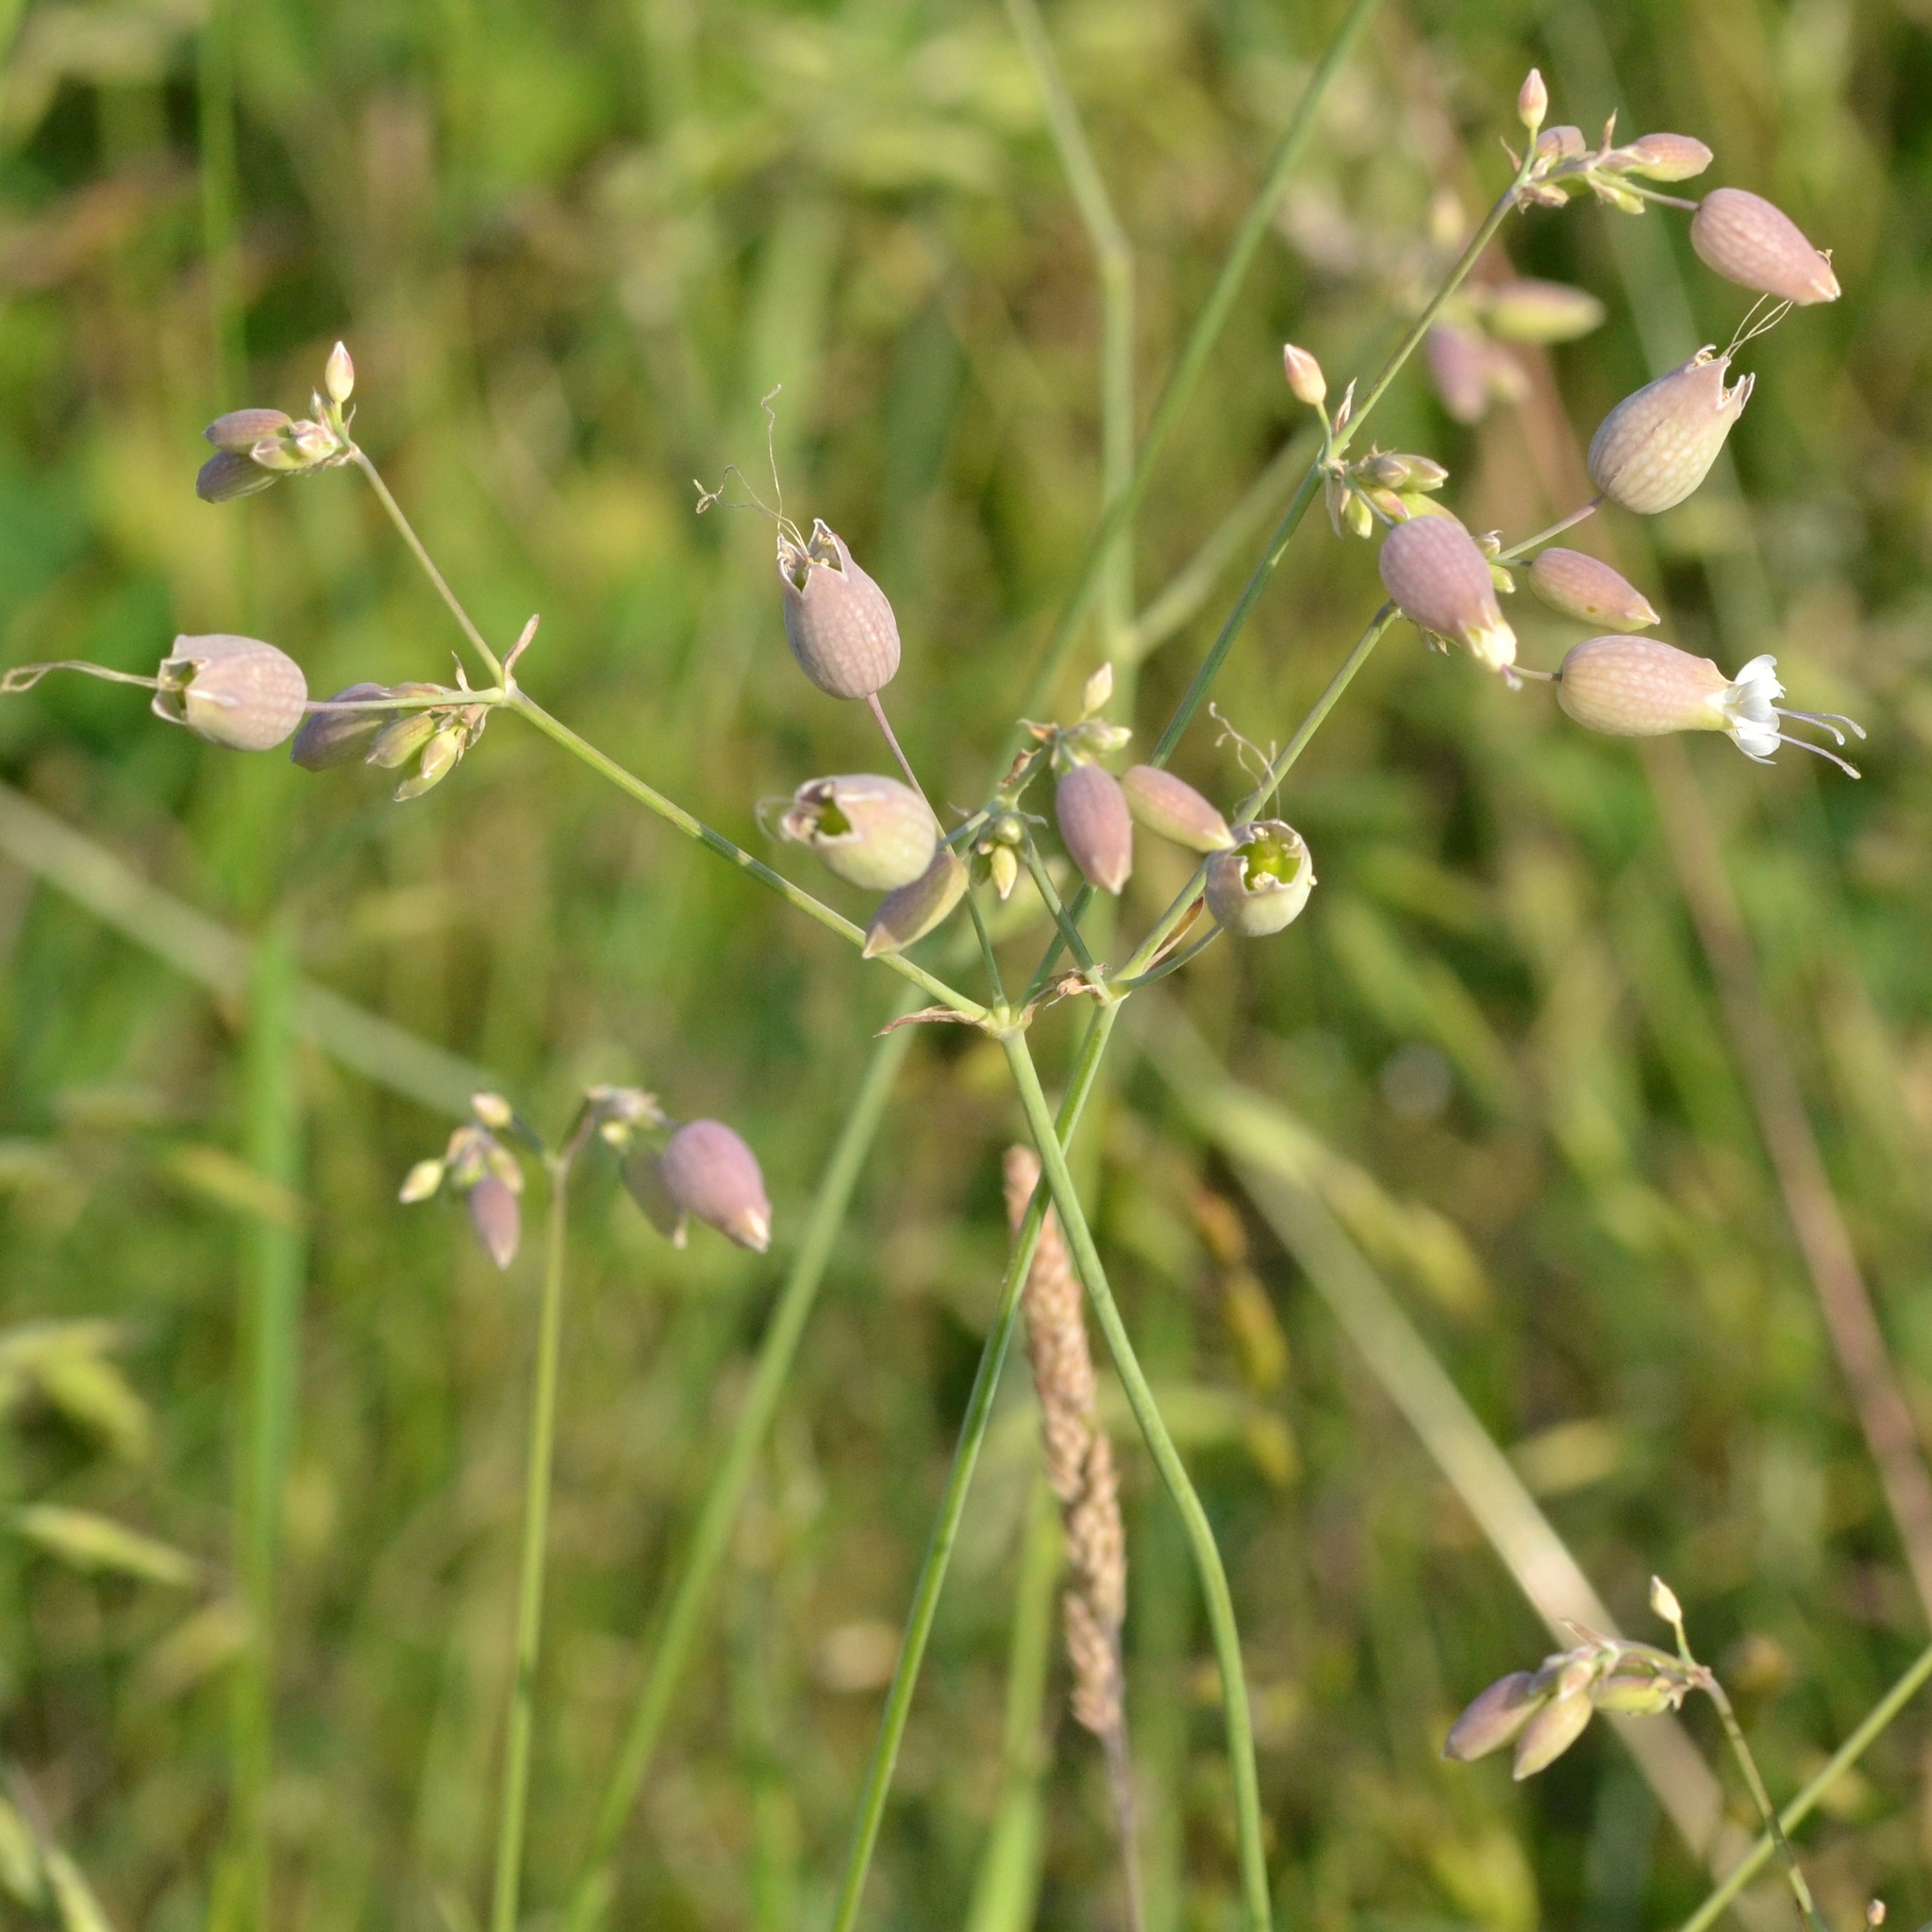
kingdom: Plantae
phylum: Tracheophyta
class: Magnoliopsida
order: Caryophyllales
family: Caryophyllaceae
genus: Silene
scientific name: Silene vulgaris
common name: Bladder campion
